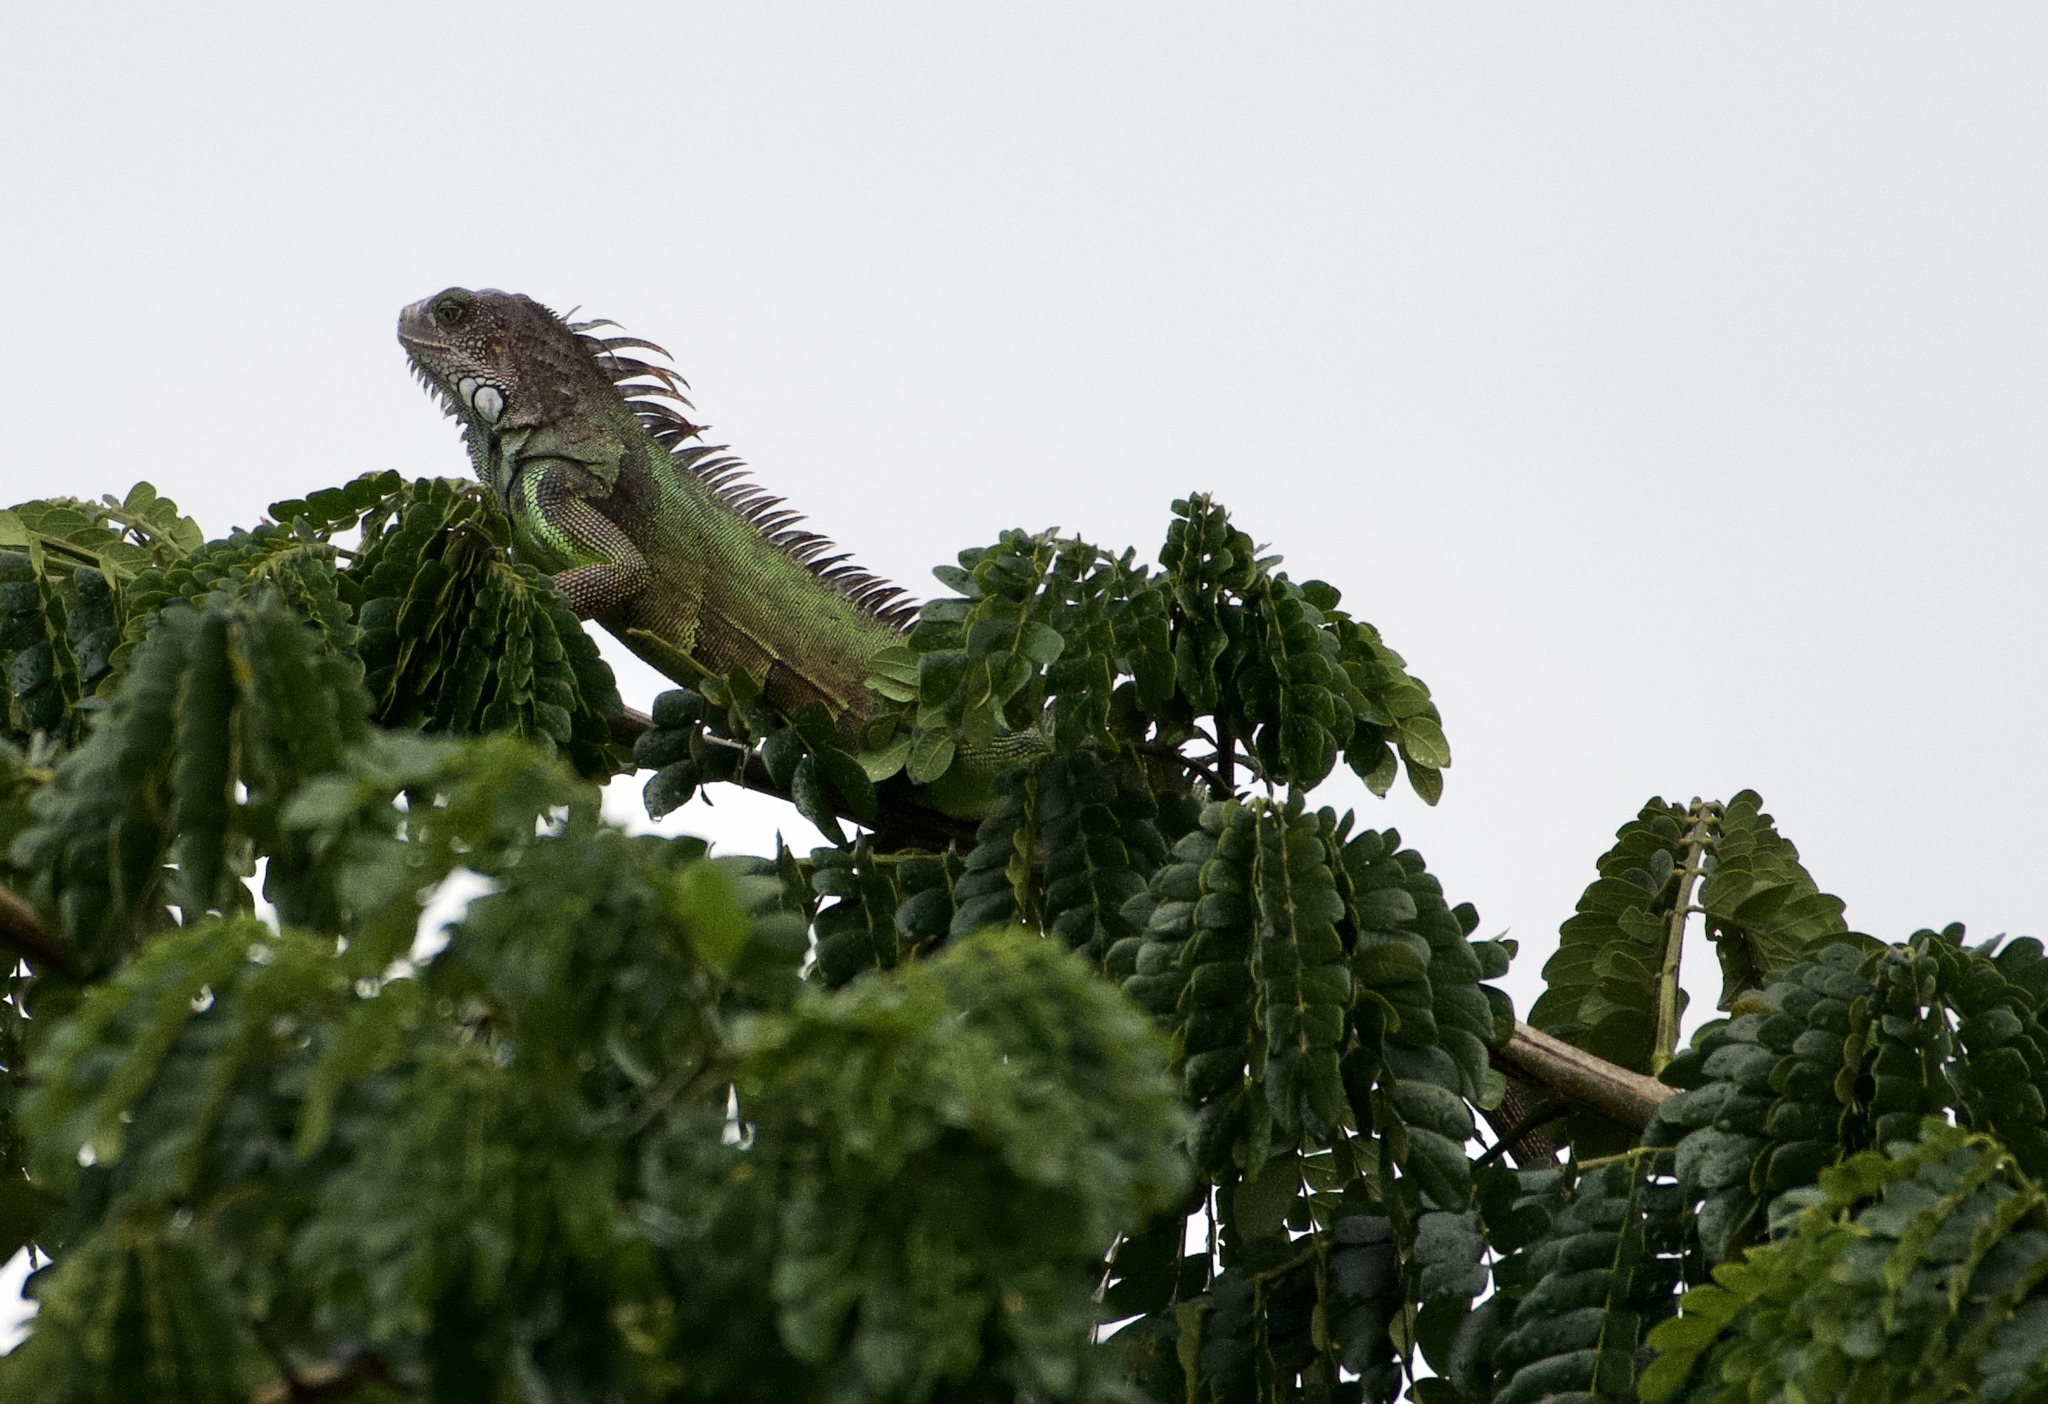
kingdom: Animalia
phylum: Chordata
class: Squamata
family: Iguanidae
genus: Iguana
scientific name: Iguana iguana
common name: Green iguana
